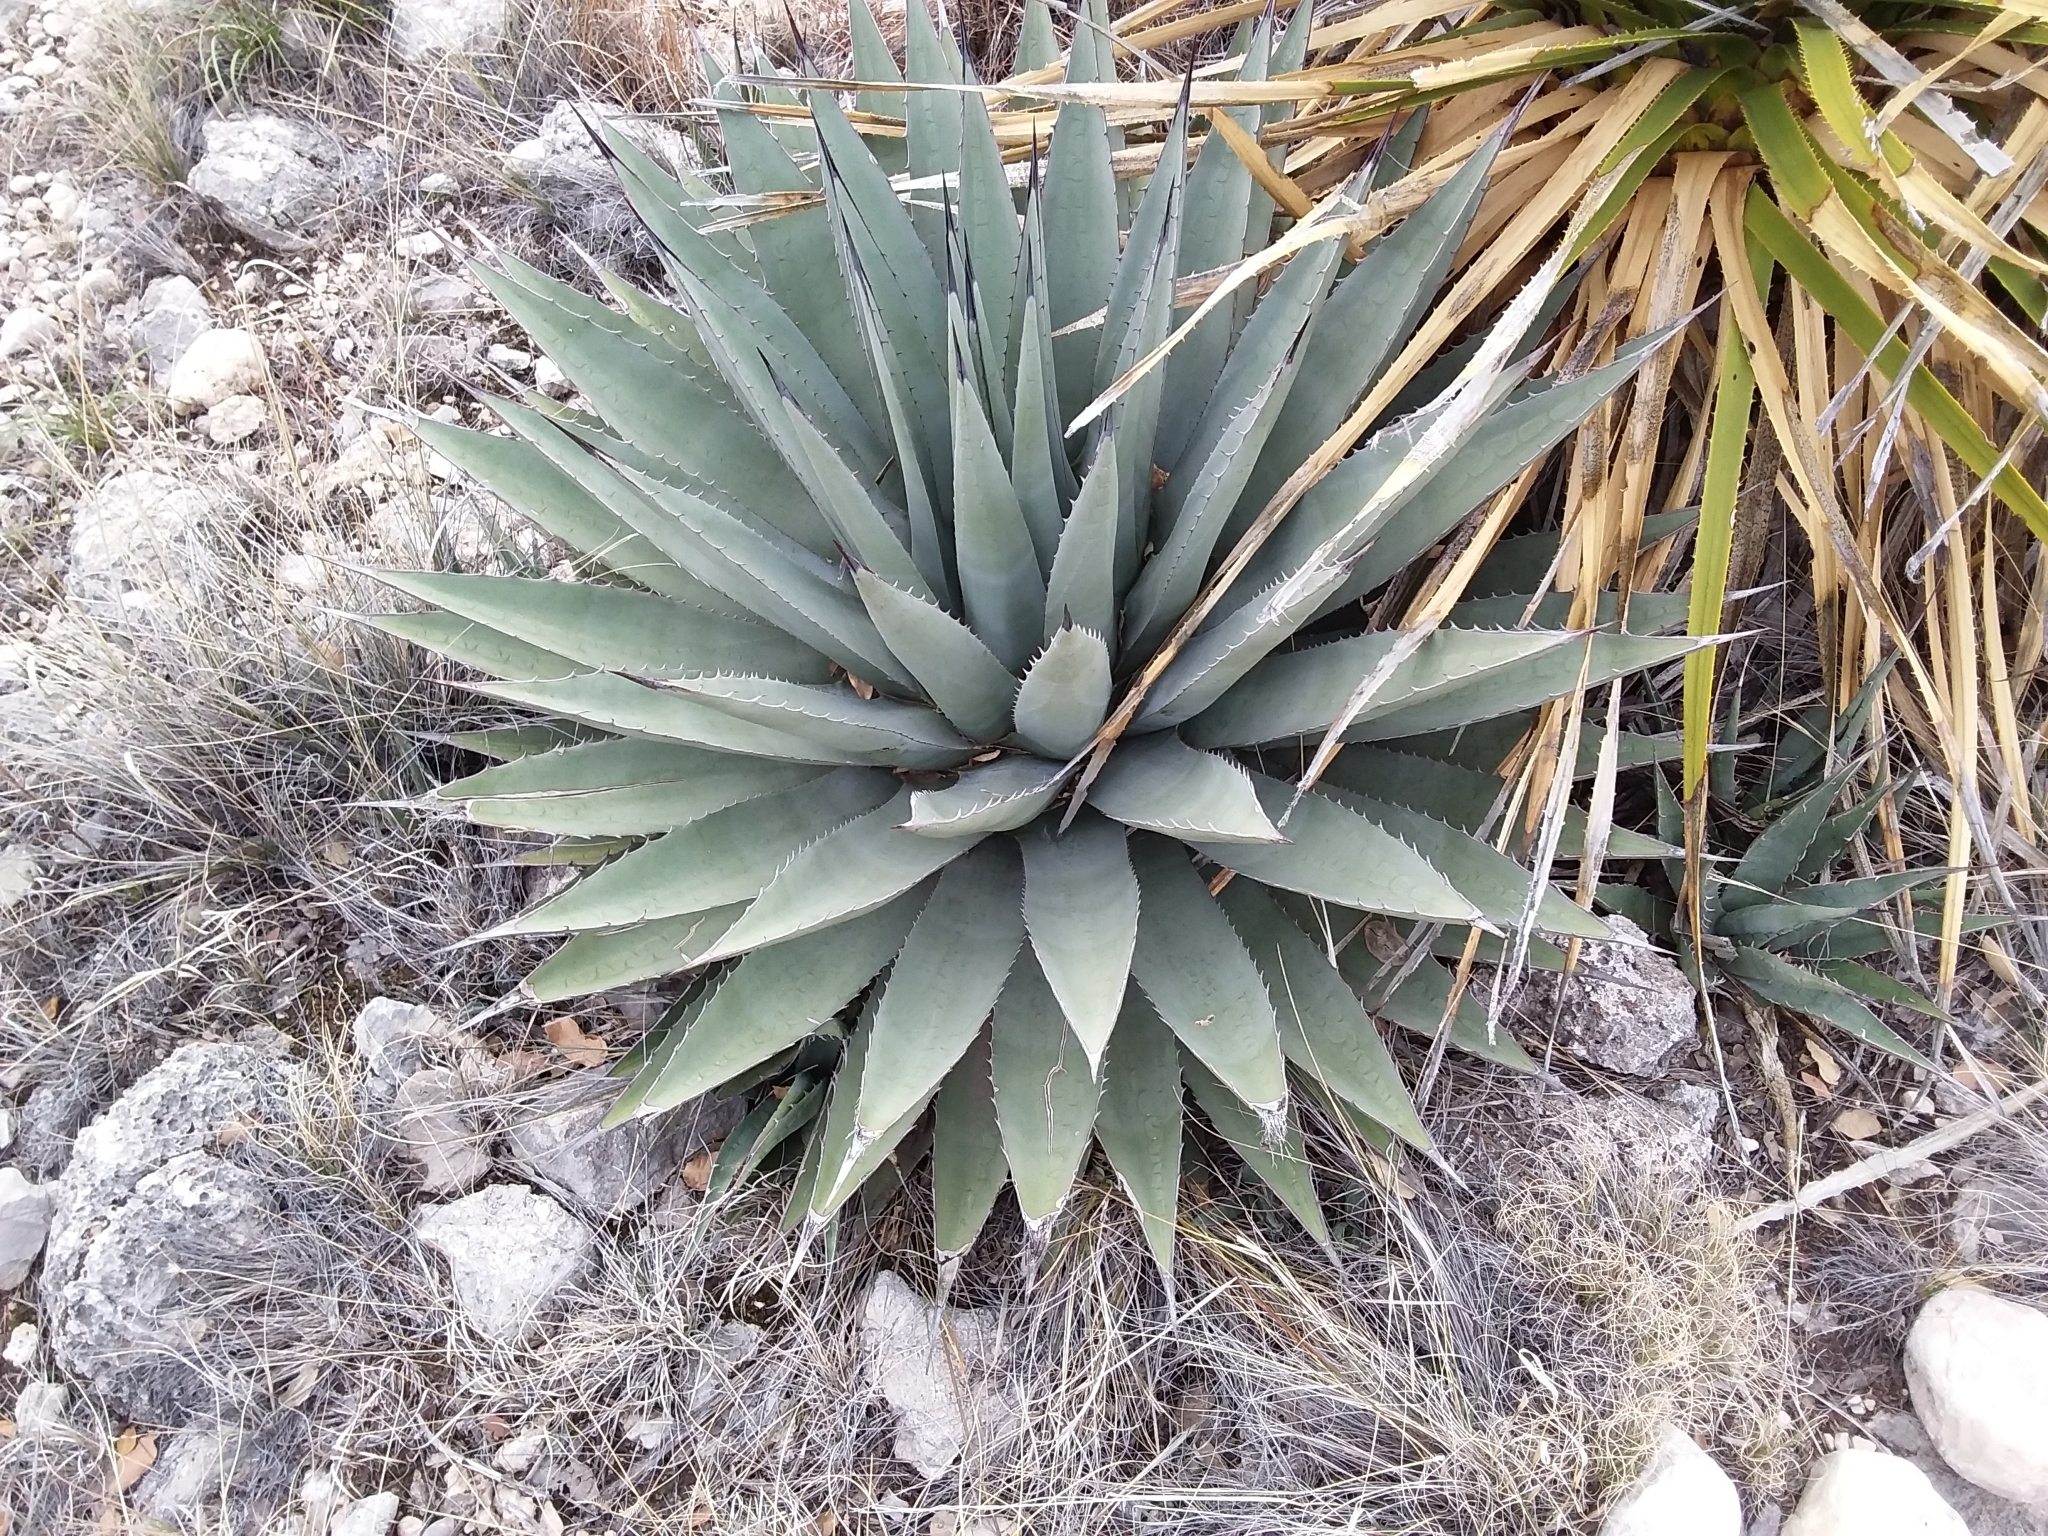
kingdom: Plantae
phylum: Tracheophyta
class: Liliopsida
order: Asparagales
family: Asparagaceae
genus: Agave
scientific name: Agave parryi
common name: Parry's agave
